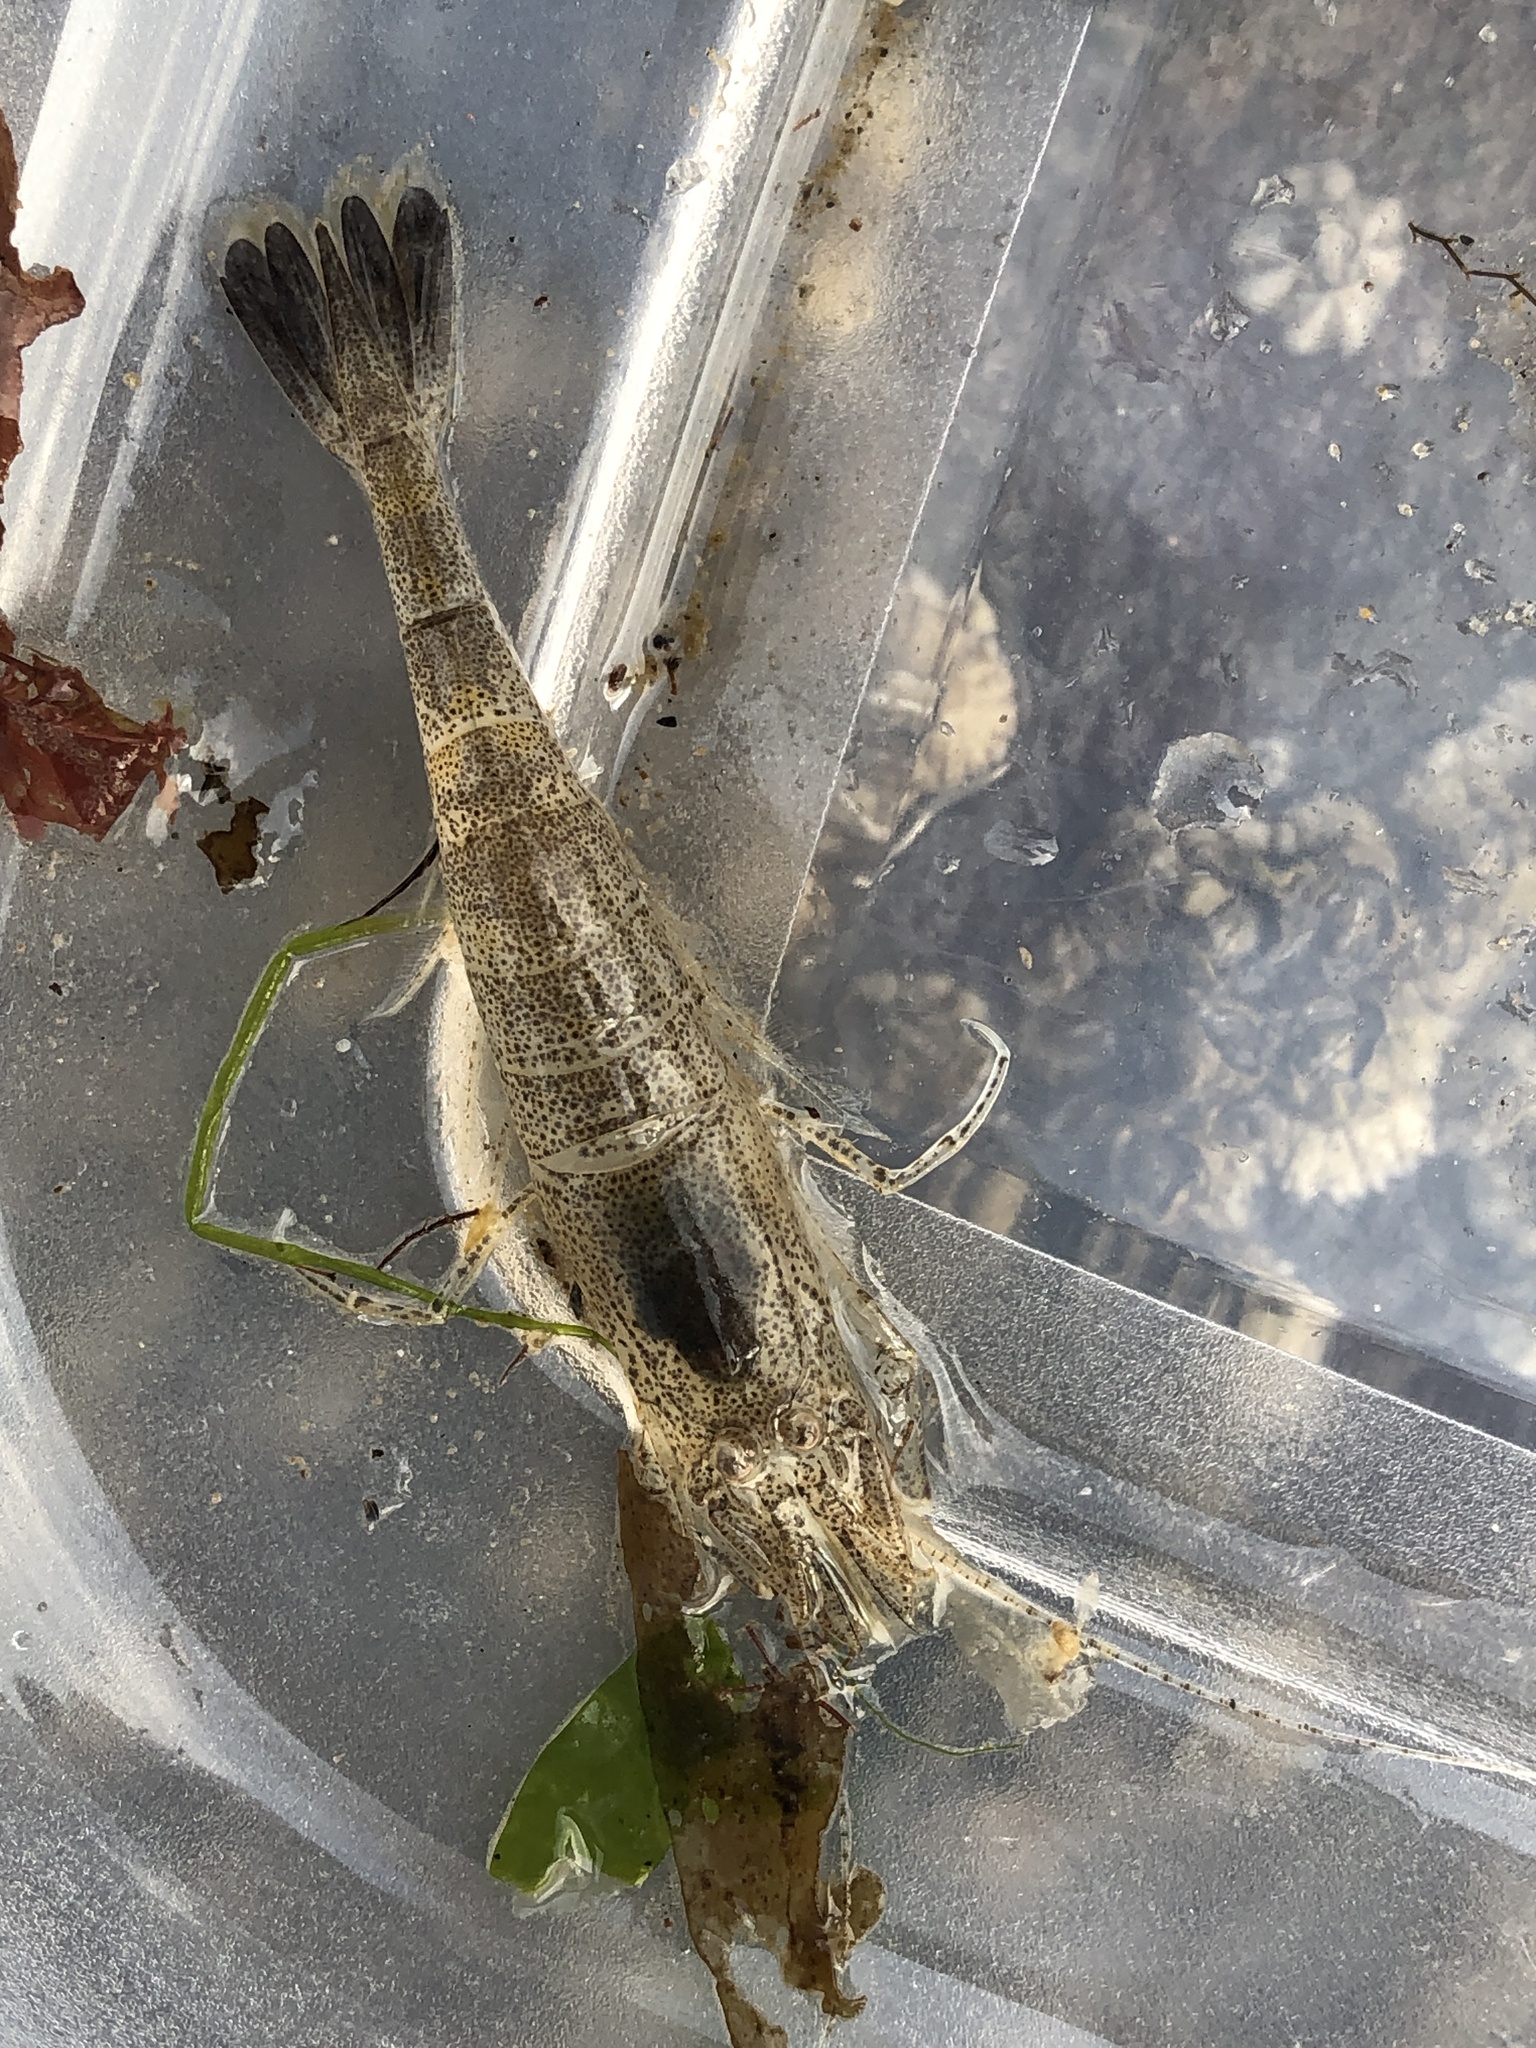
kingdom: Animalia
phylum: Arthropoda
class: Malacostraca
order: Decapoda
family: Crangonidae
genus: Crangon
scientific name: Crangon crangon
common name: Brown shrimp
